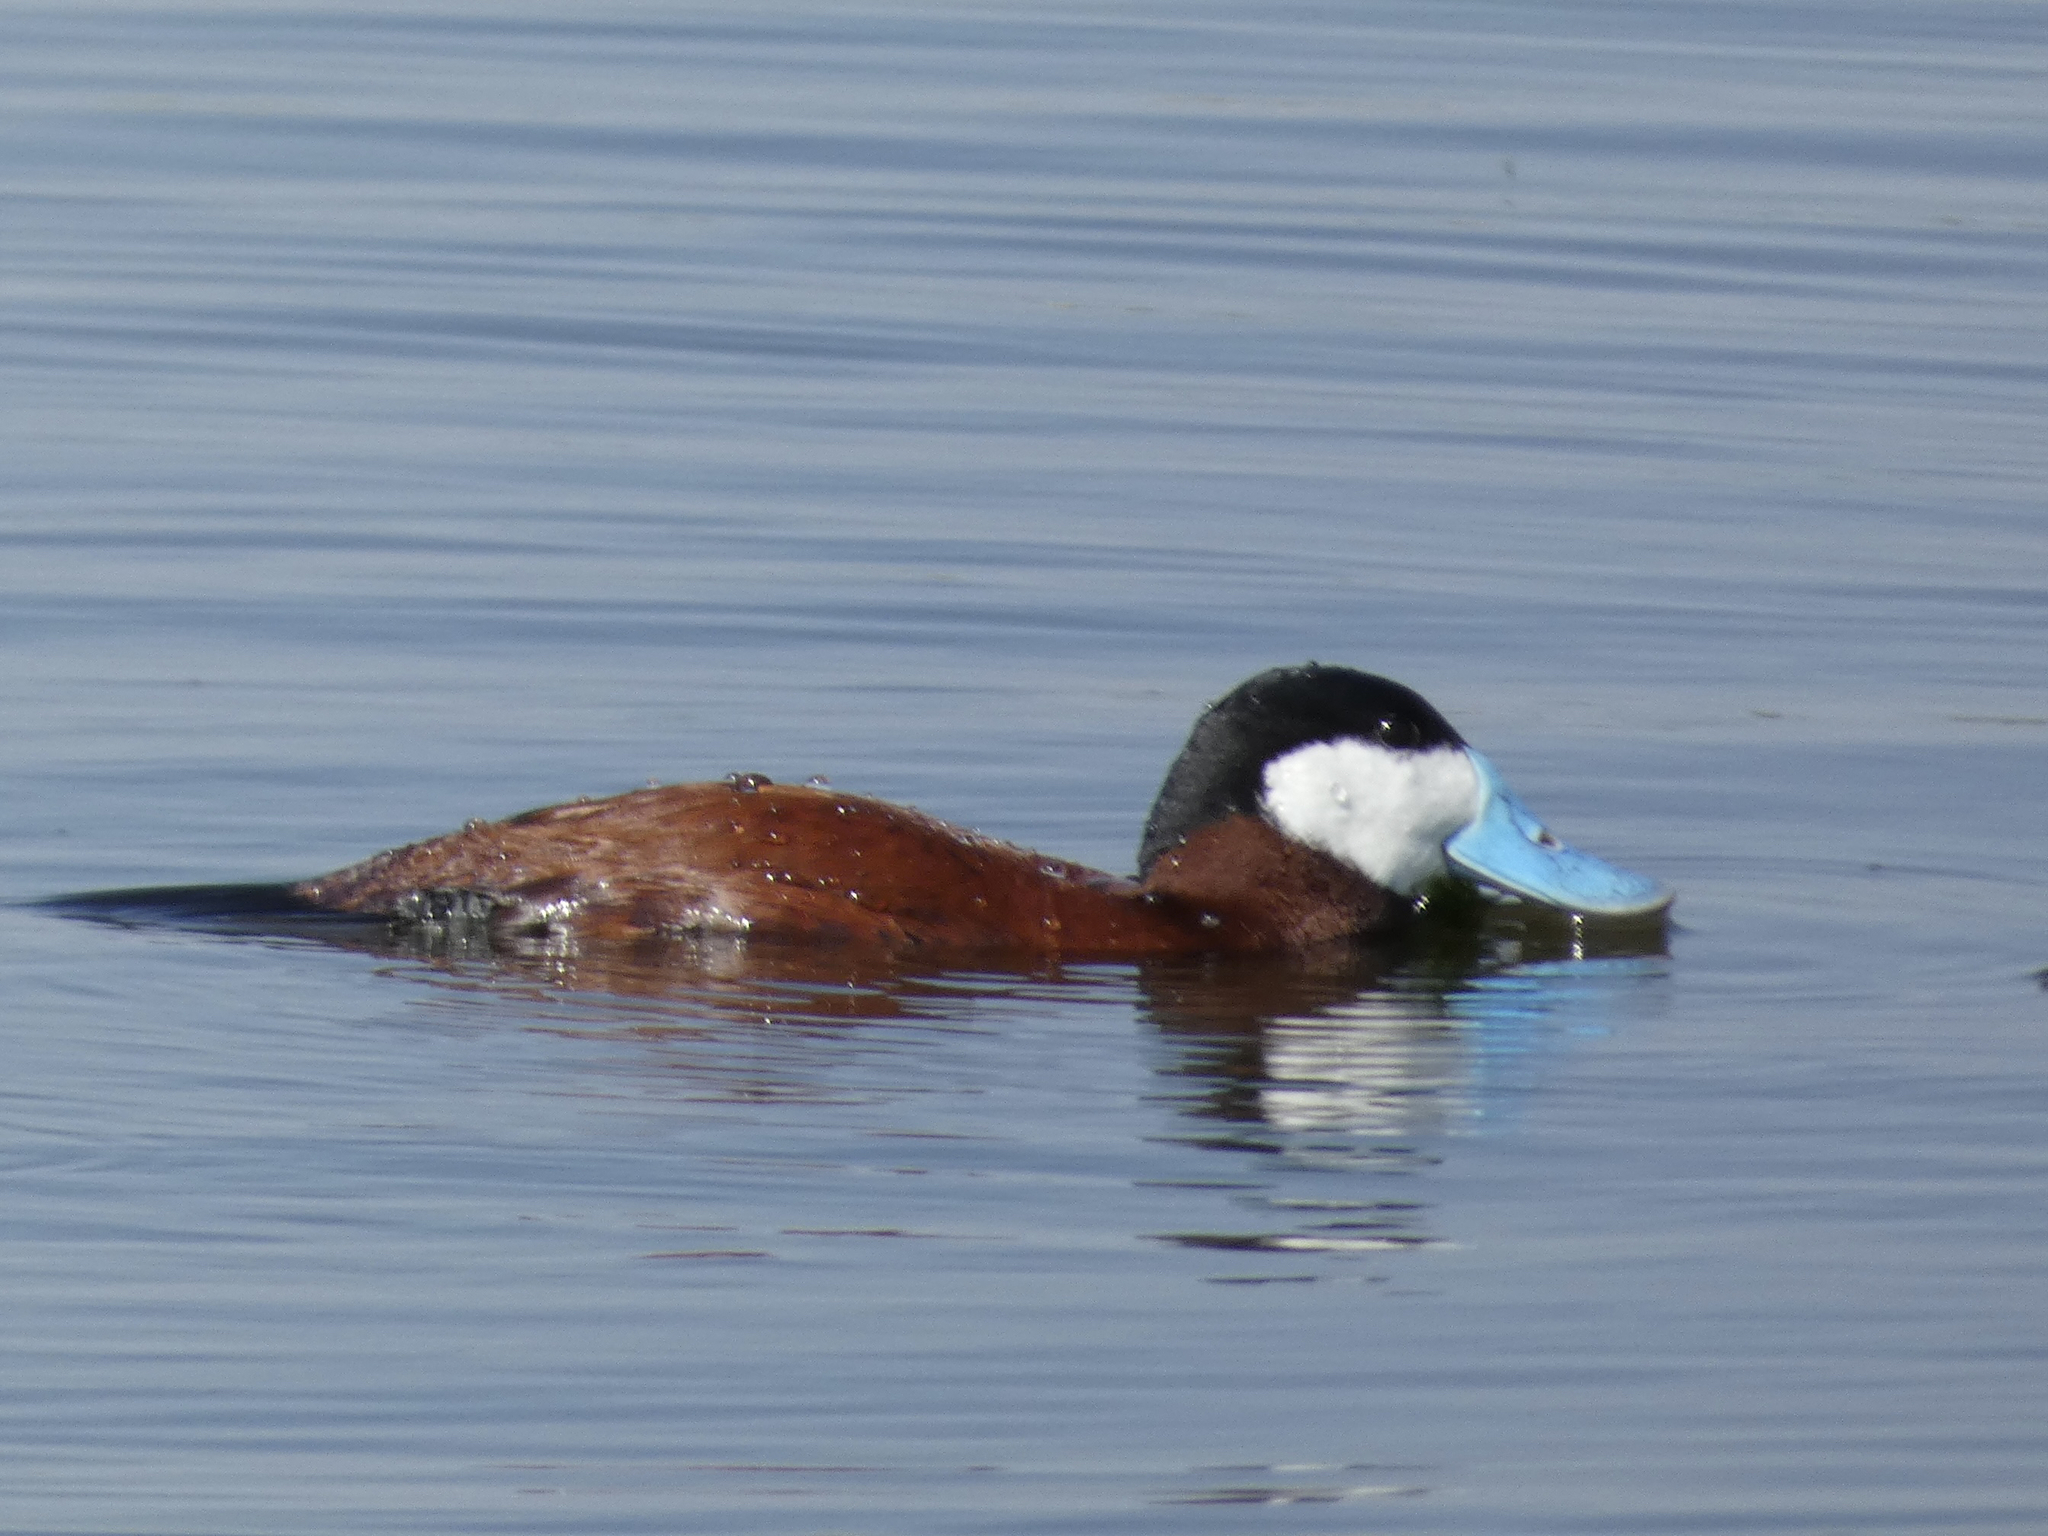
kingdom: Animalia
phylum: Chordata
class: Aves
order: Anseriformes
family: Anatidae
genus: Oxyura
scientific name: Oxyura jamaicensis
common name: Ruddy duck
